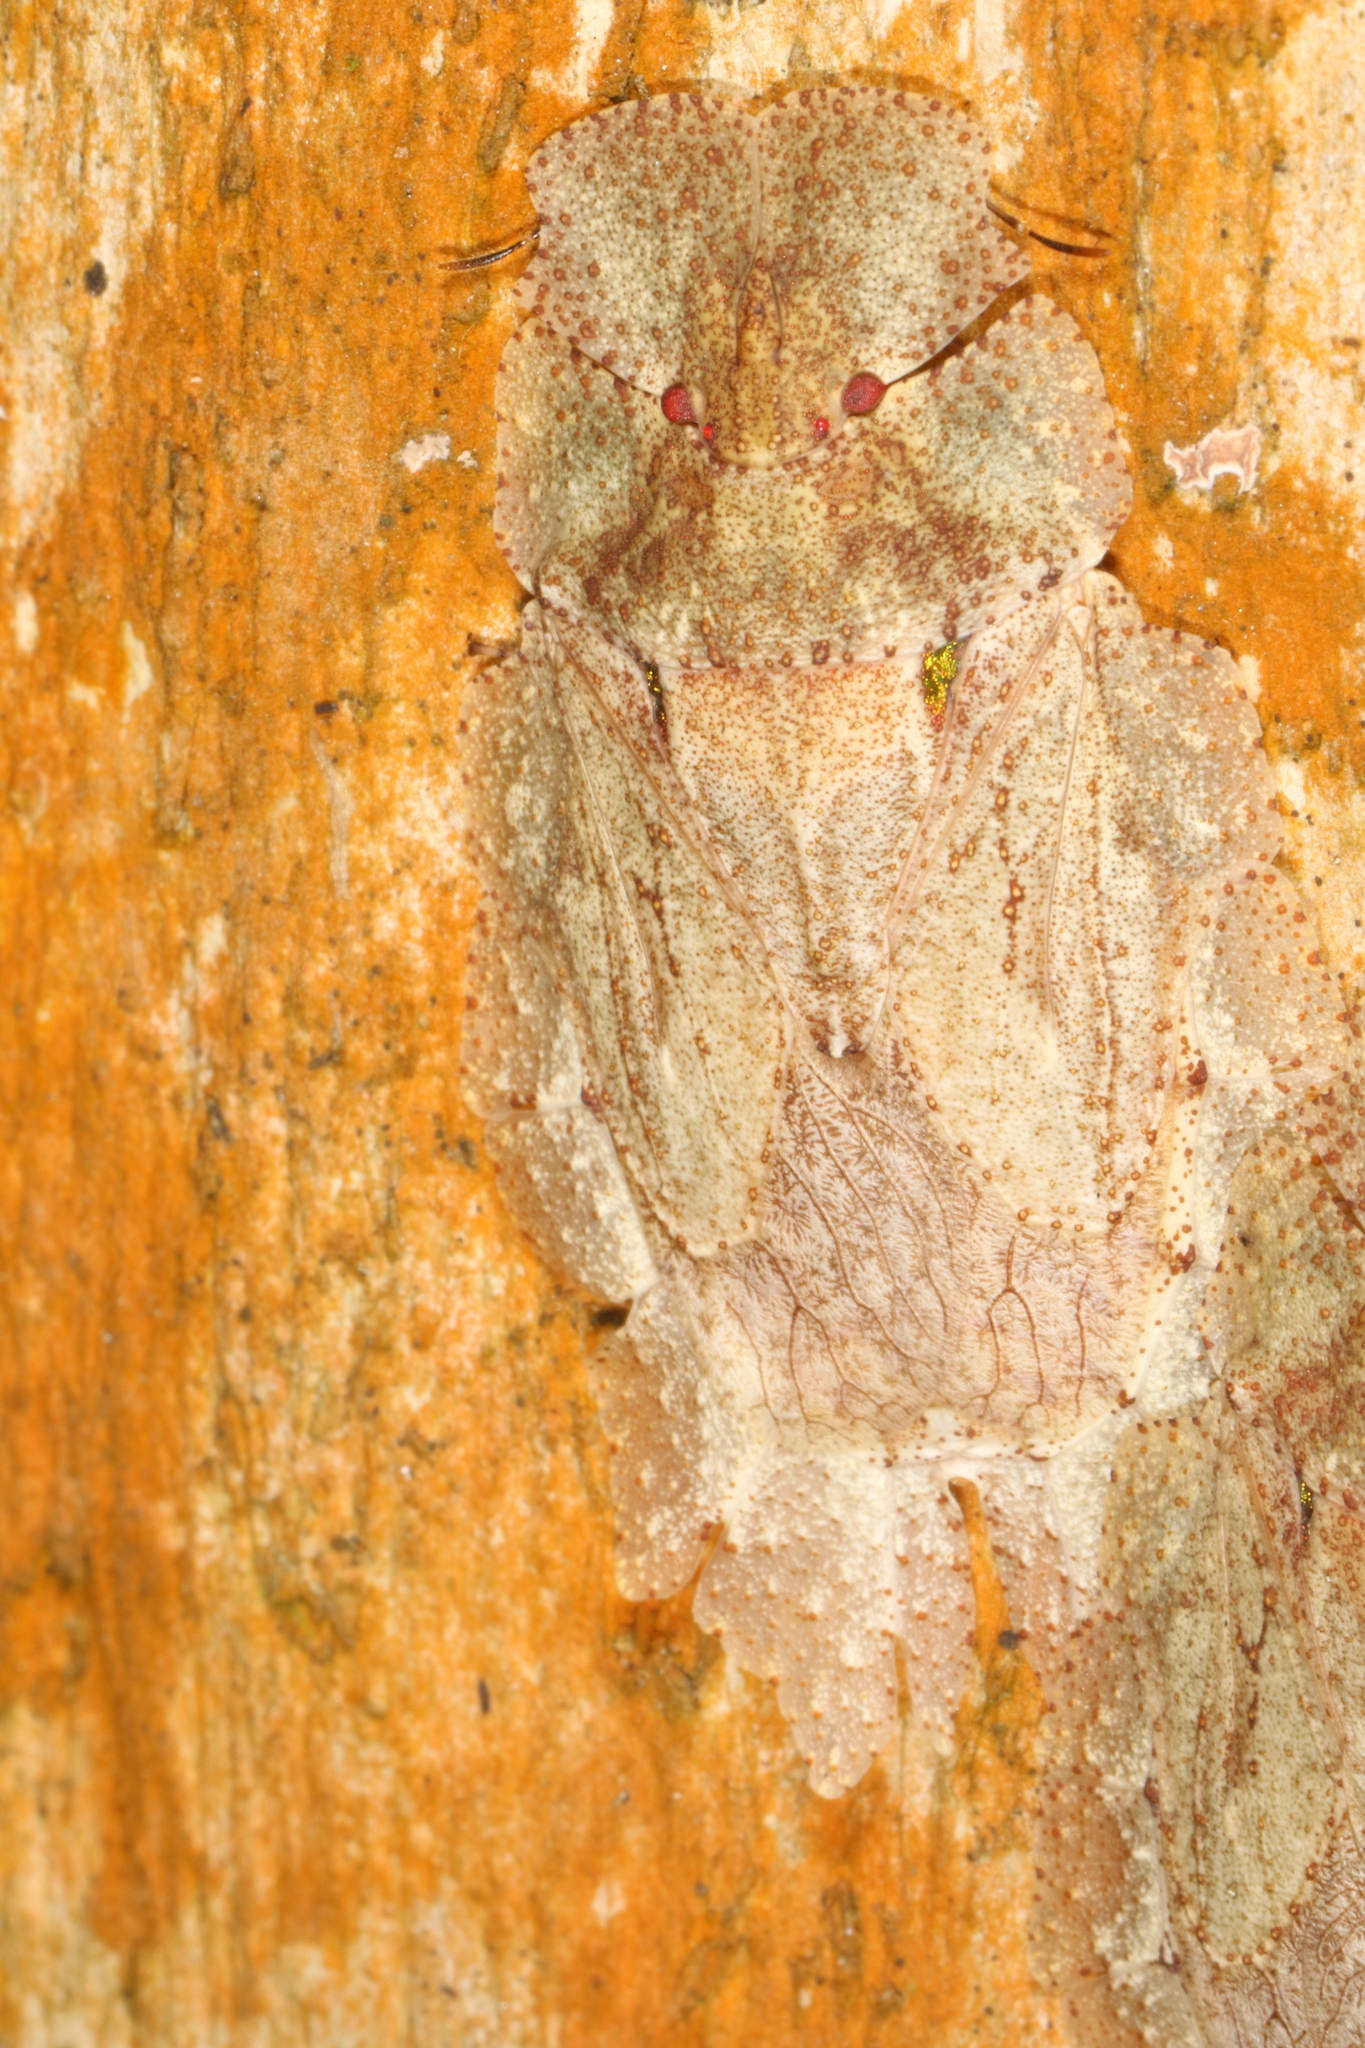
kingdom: Animalia
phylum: Arthropoda
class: Insecta
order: Hemiptera
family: Phleides
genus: Phloea
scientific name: Phloea
